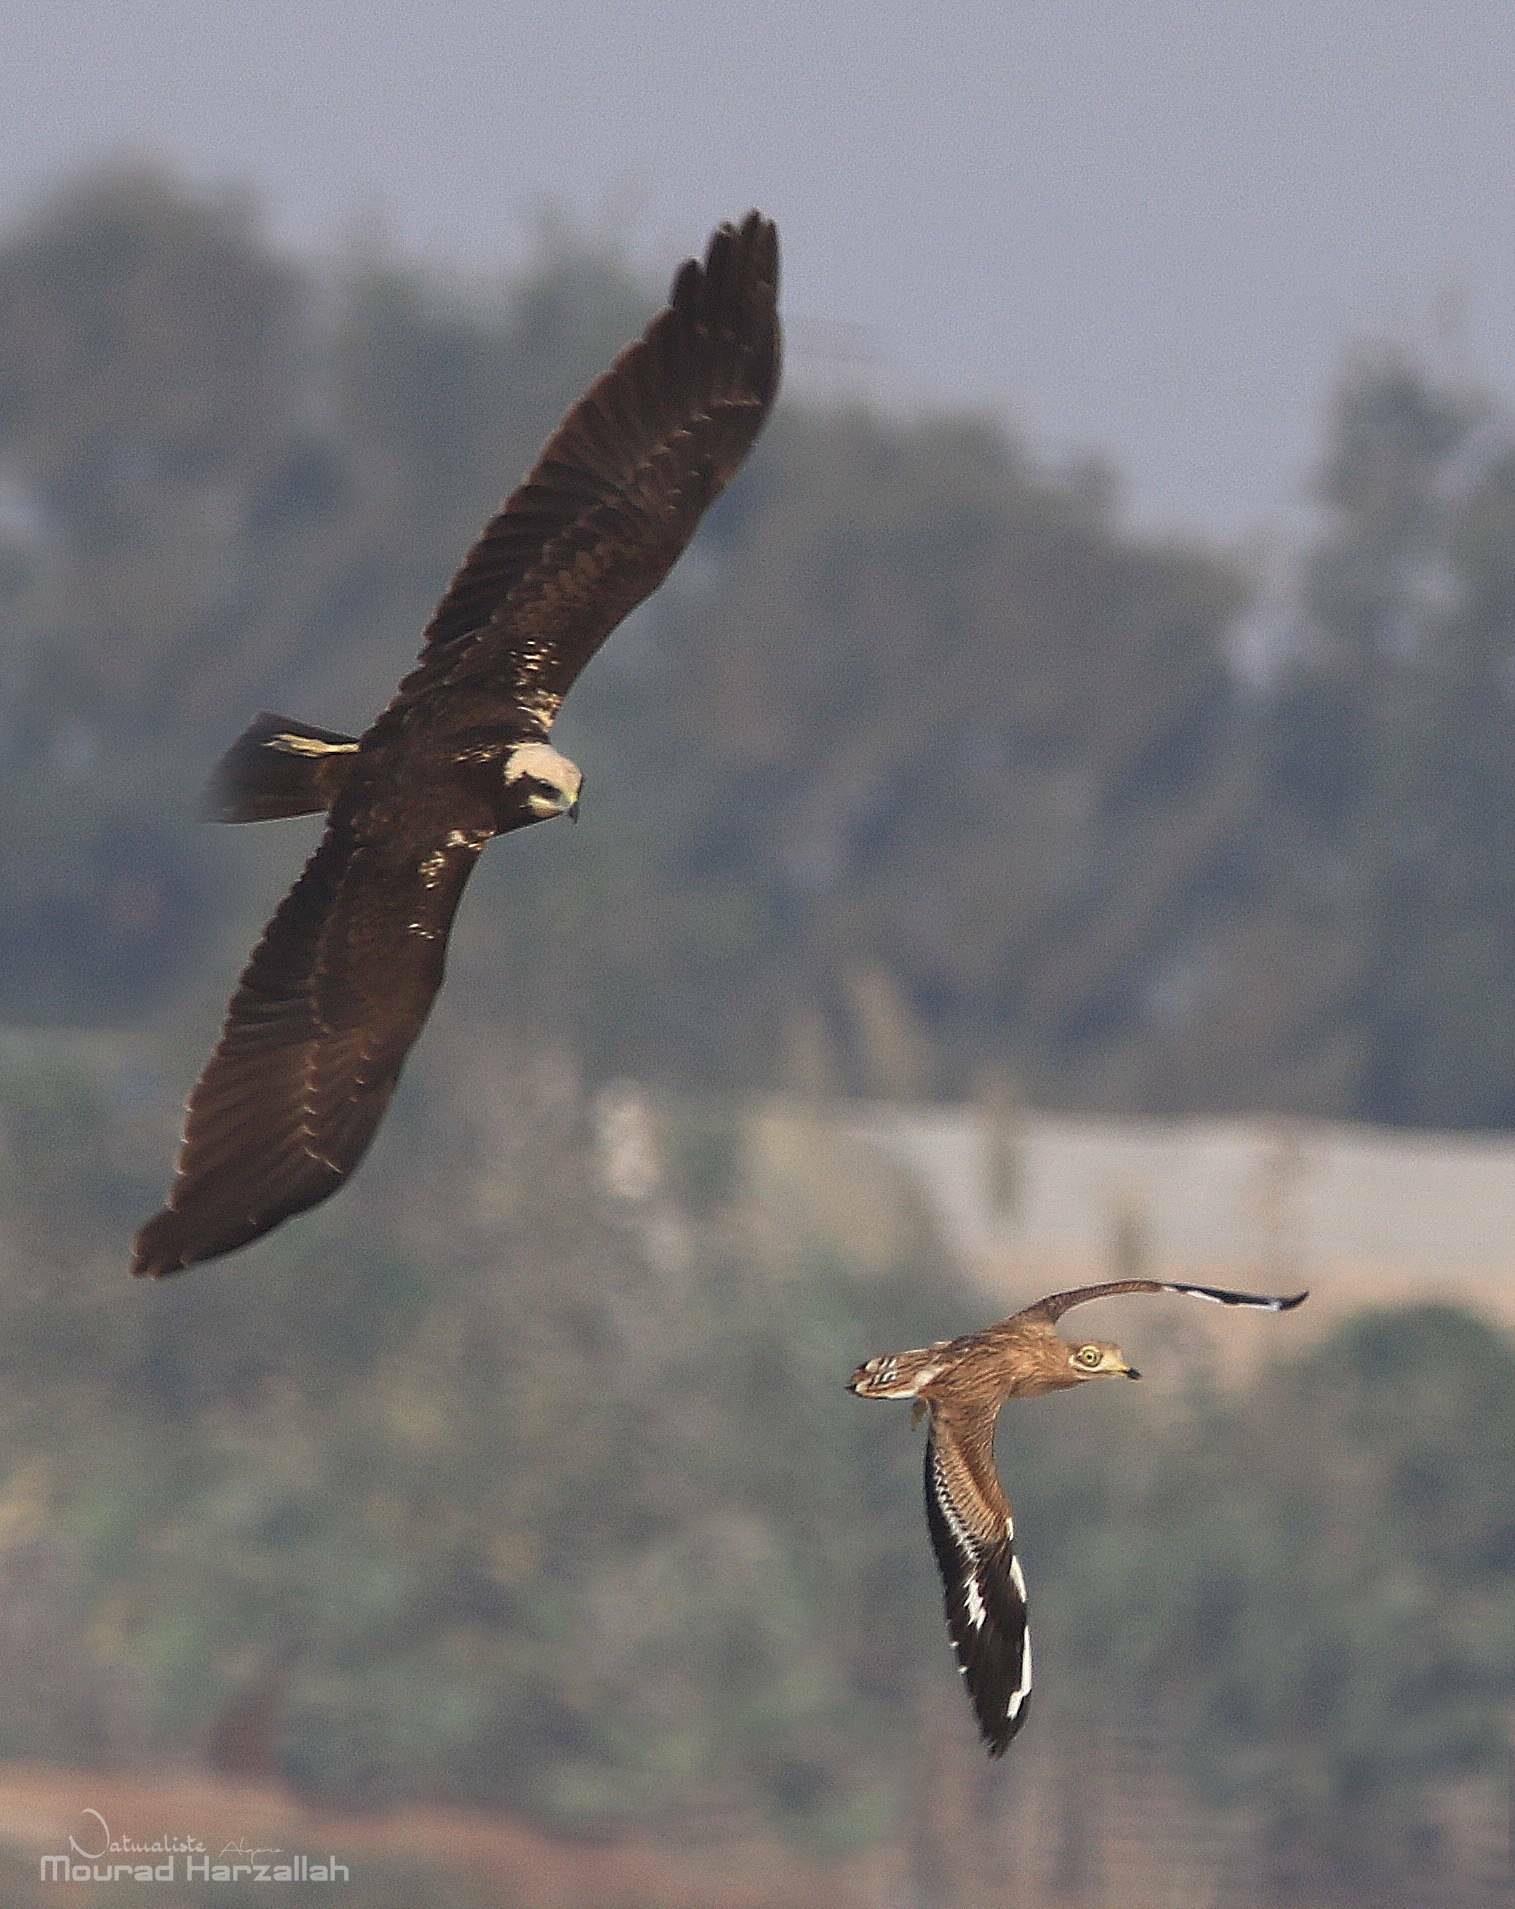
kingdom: Animalia
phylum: Chordata
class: Aves
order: Accipitriformes
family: Accipitridae
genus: Circus
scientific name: Circus aeruginosus
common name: Western marsh harrier
